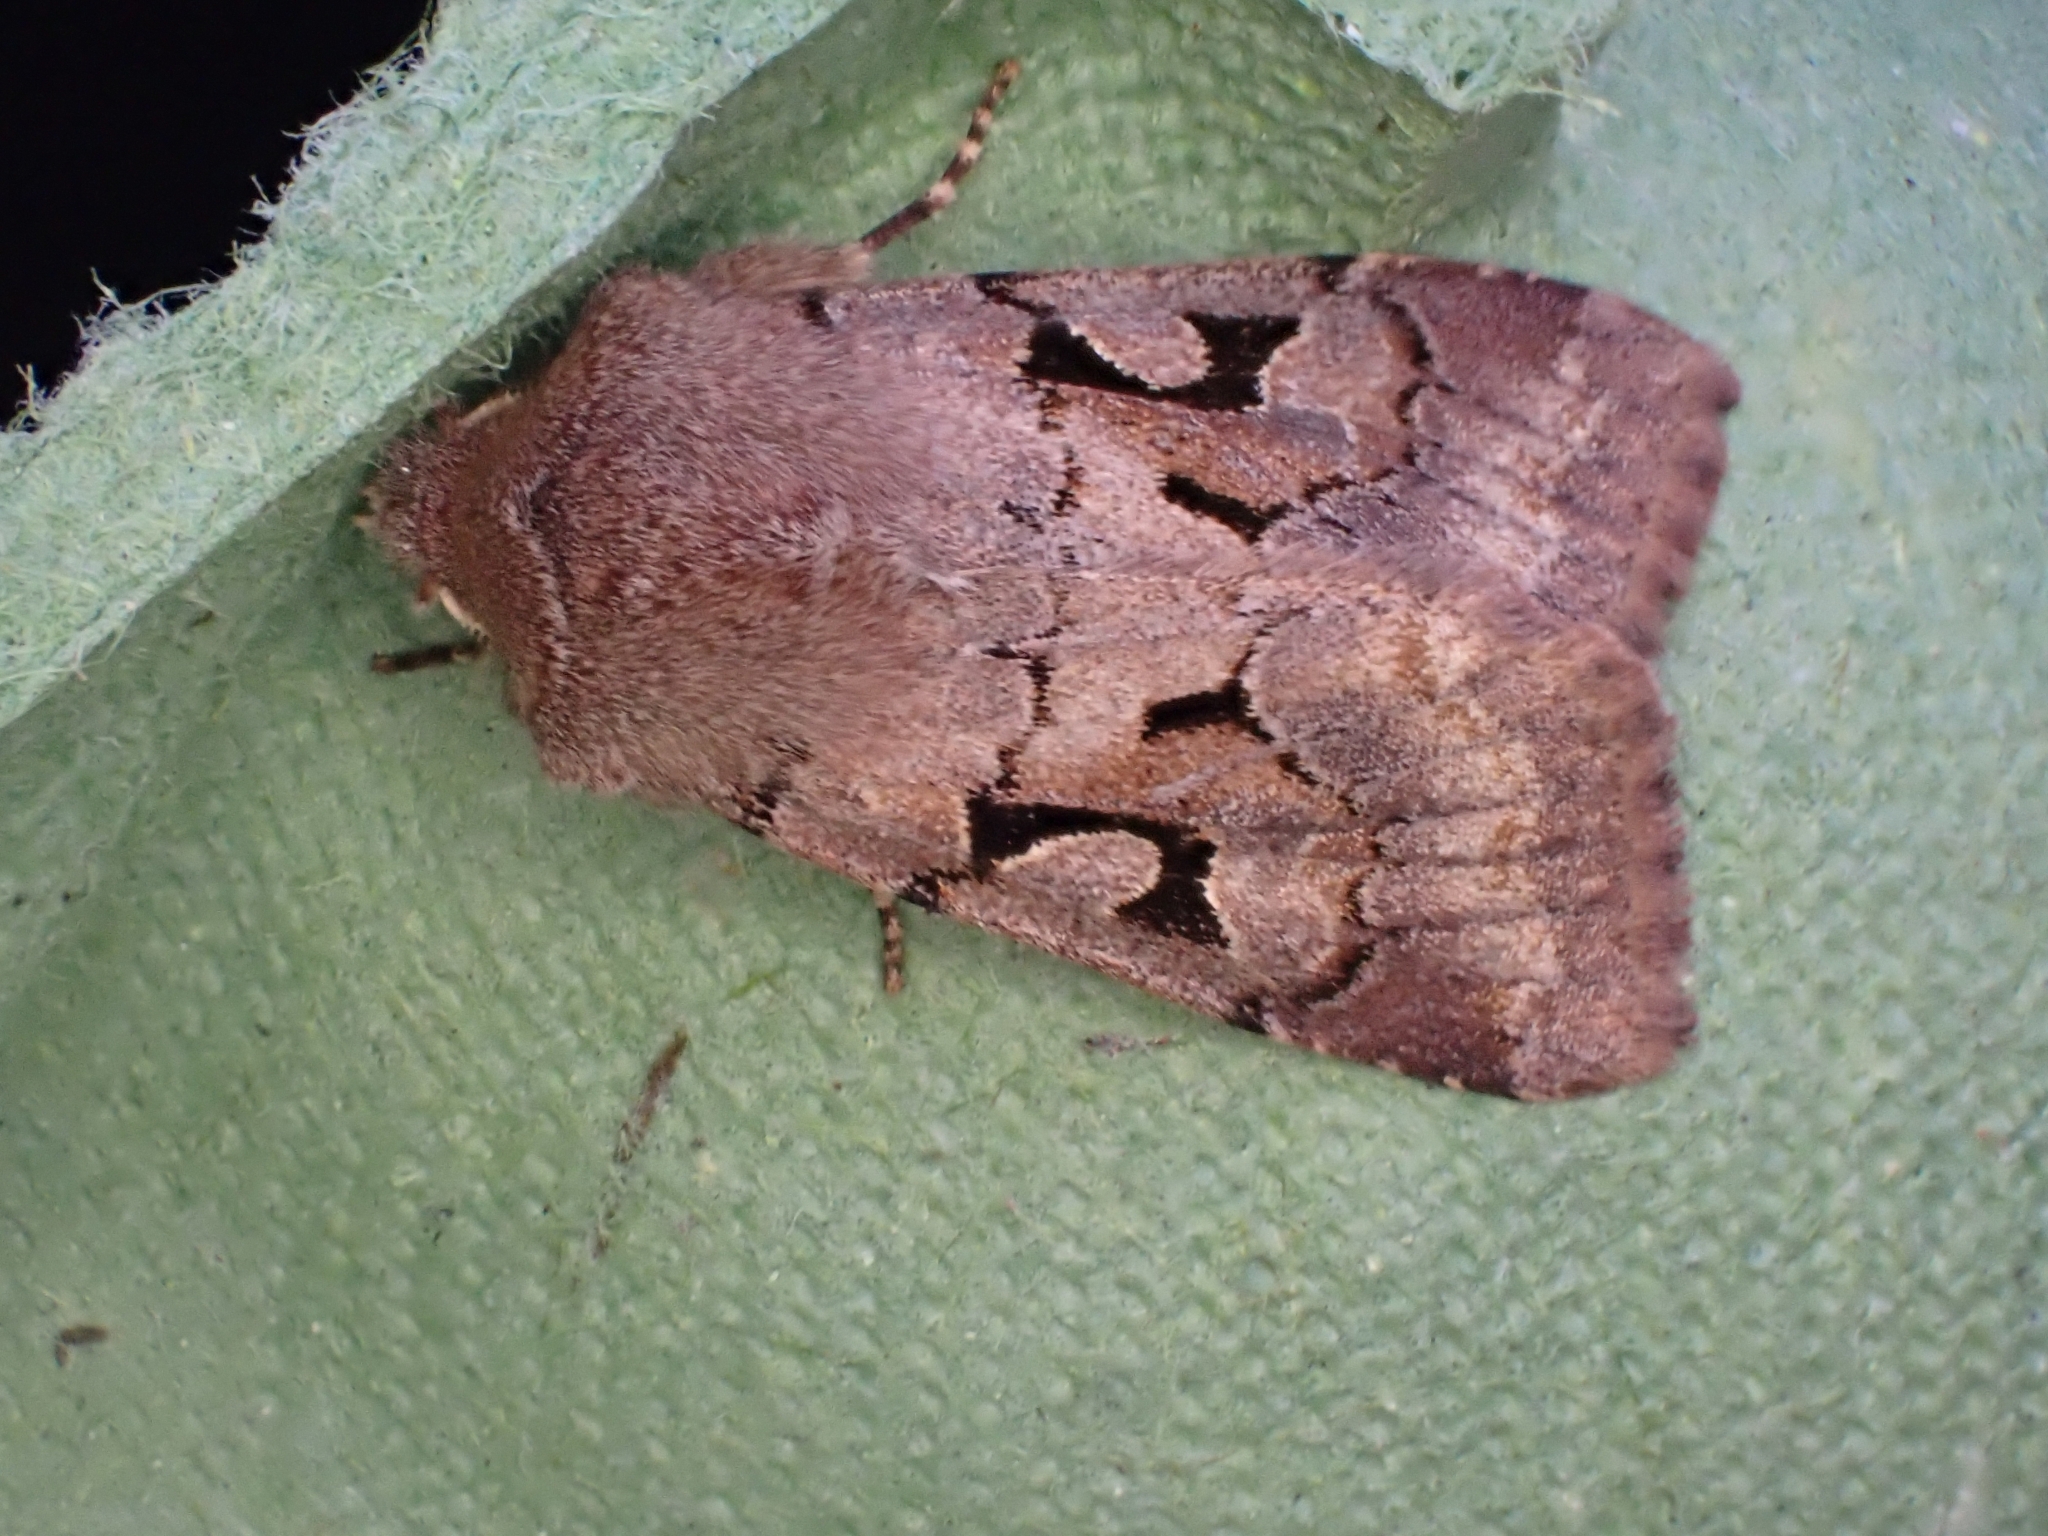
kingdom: Animalia
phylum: Arthropoda
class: Insecta
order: Lepidoptera
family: Noctuidae
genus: Orthosia
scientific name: Orthosia gothica
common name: Hebrew character
